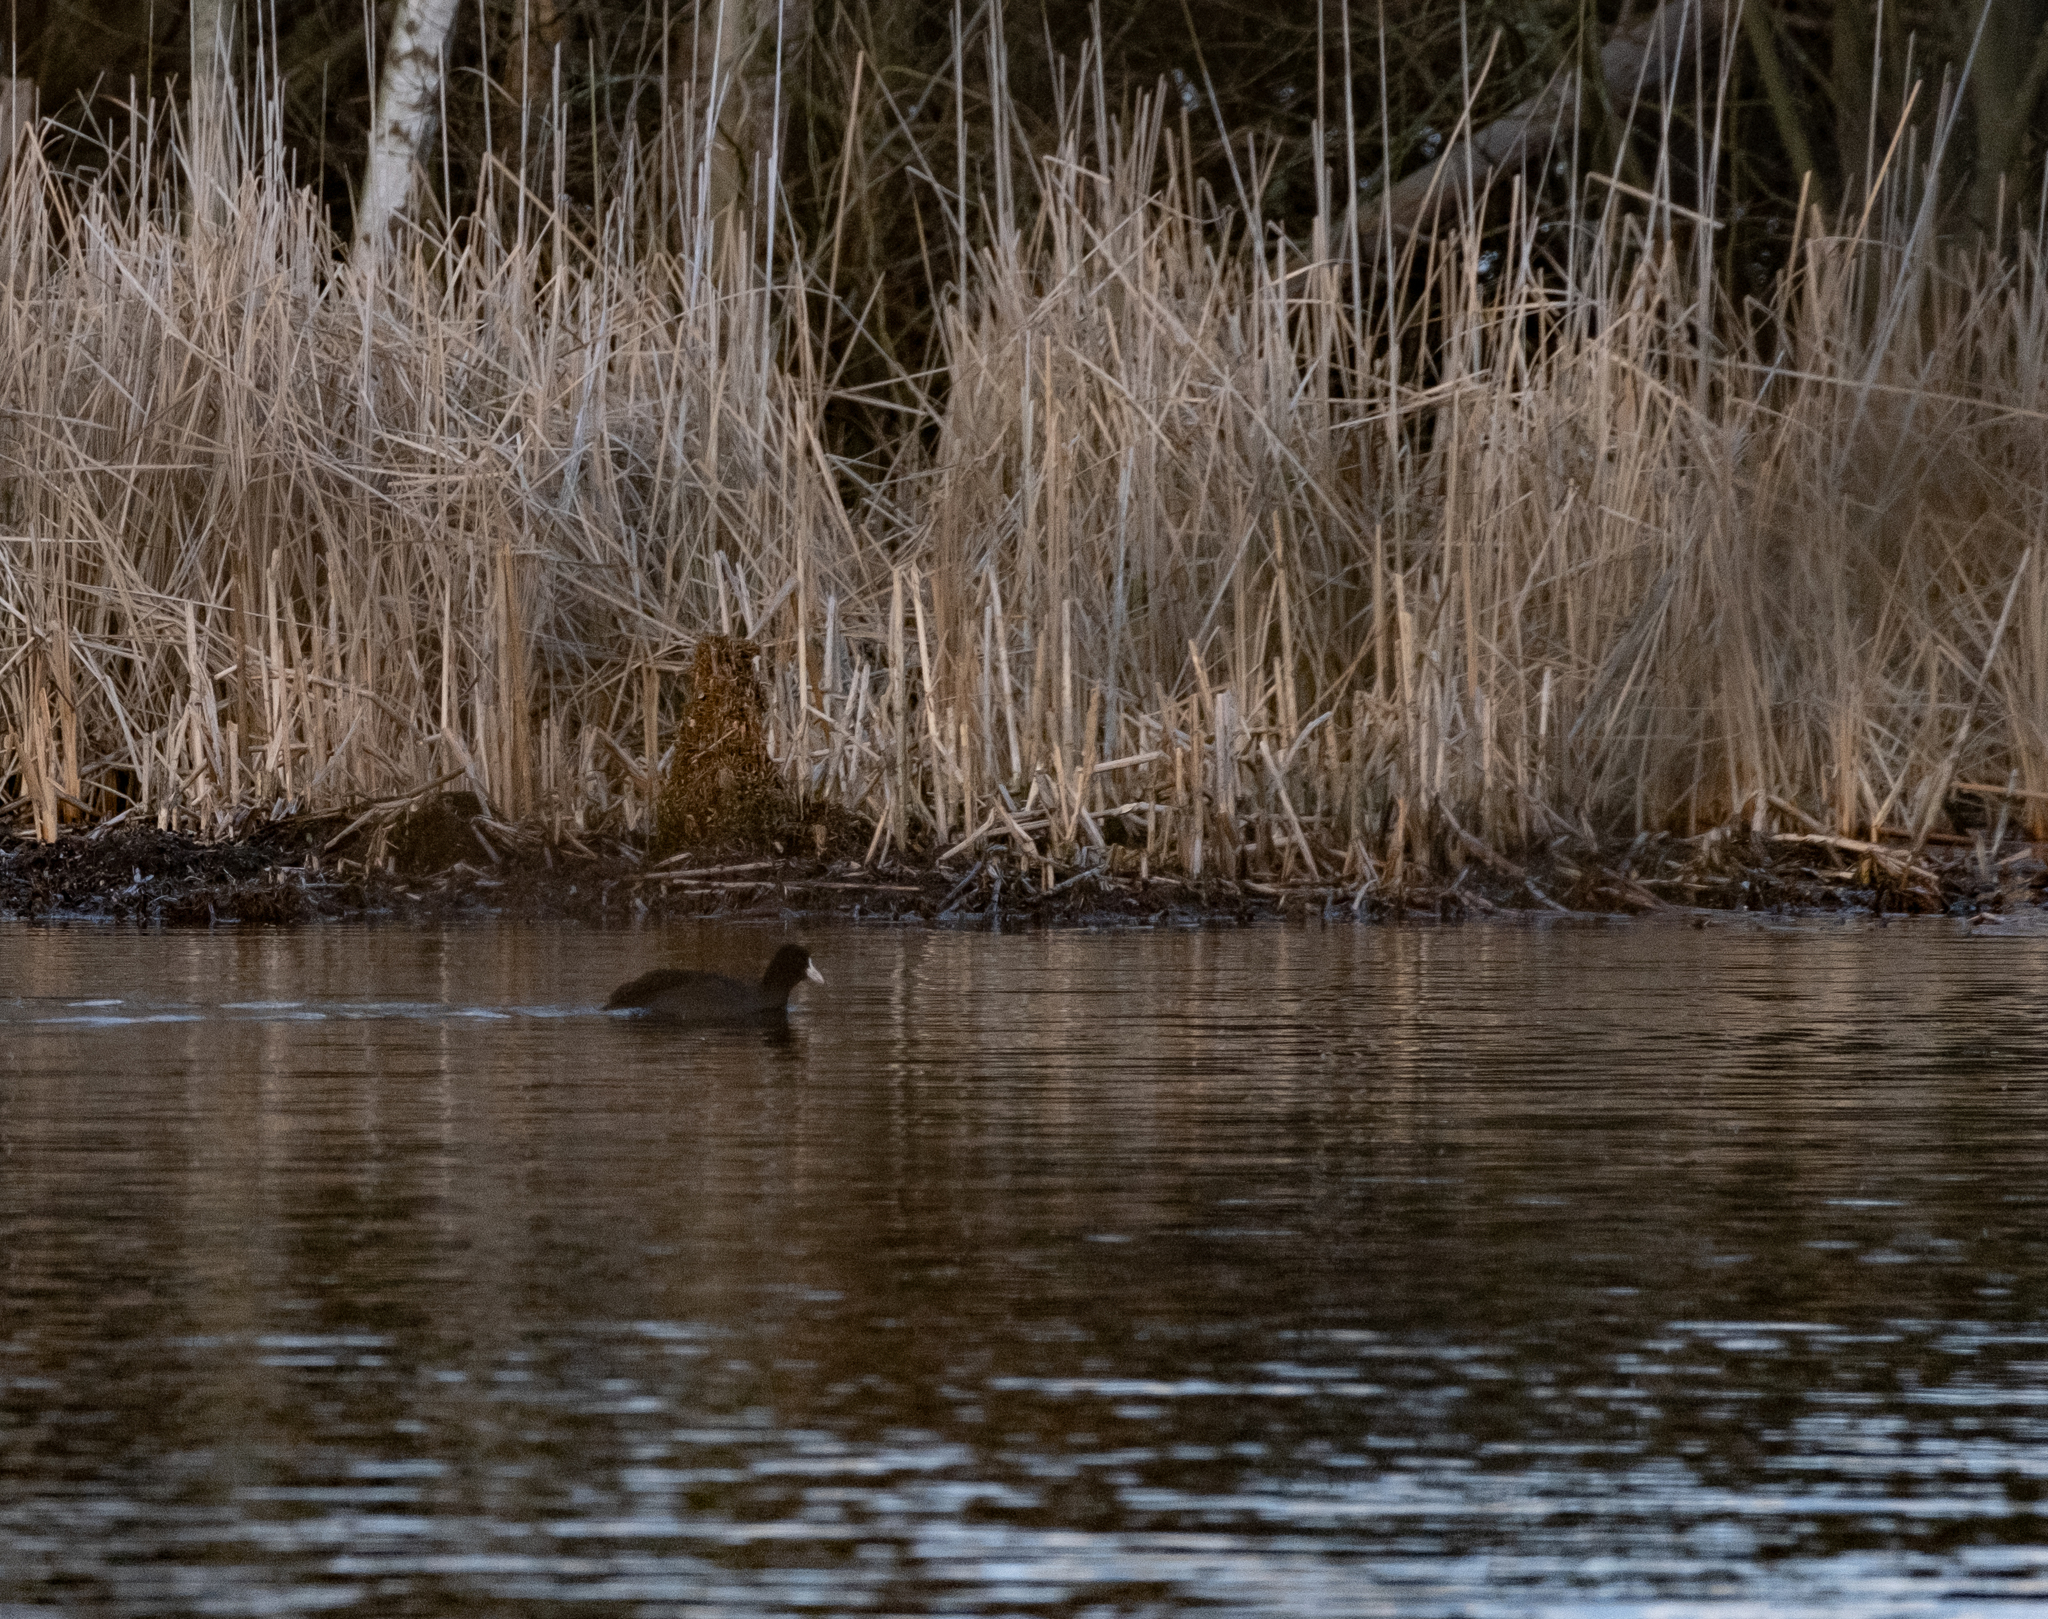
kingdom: Animalia
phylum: Chordata
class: Aves
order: Gruiformes
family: Rallidae
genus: Fulica
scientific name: Fulica atra
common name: Eurasian coot
